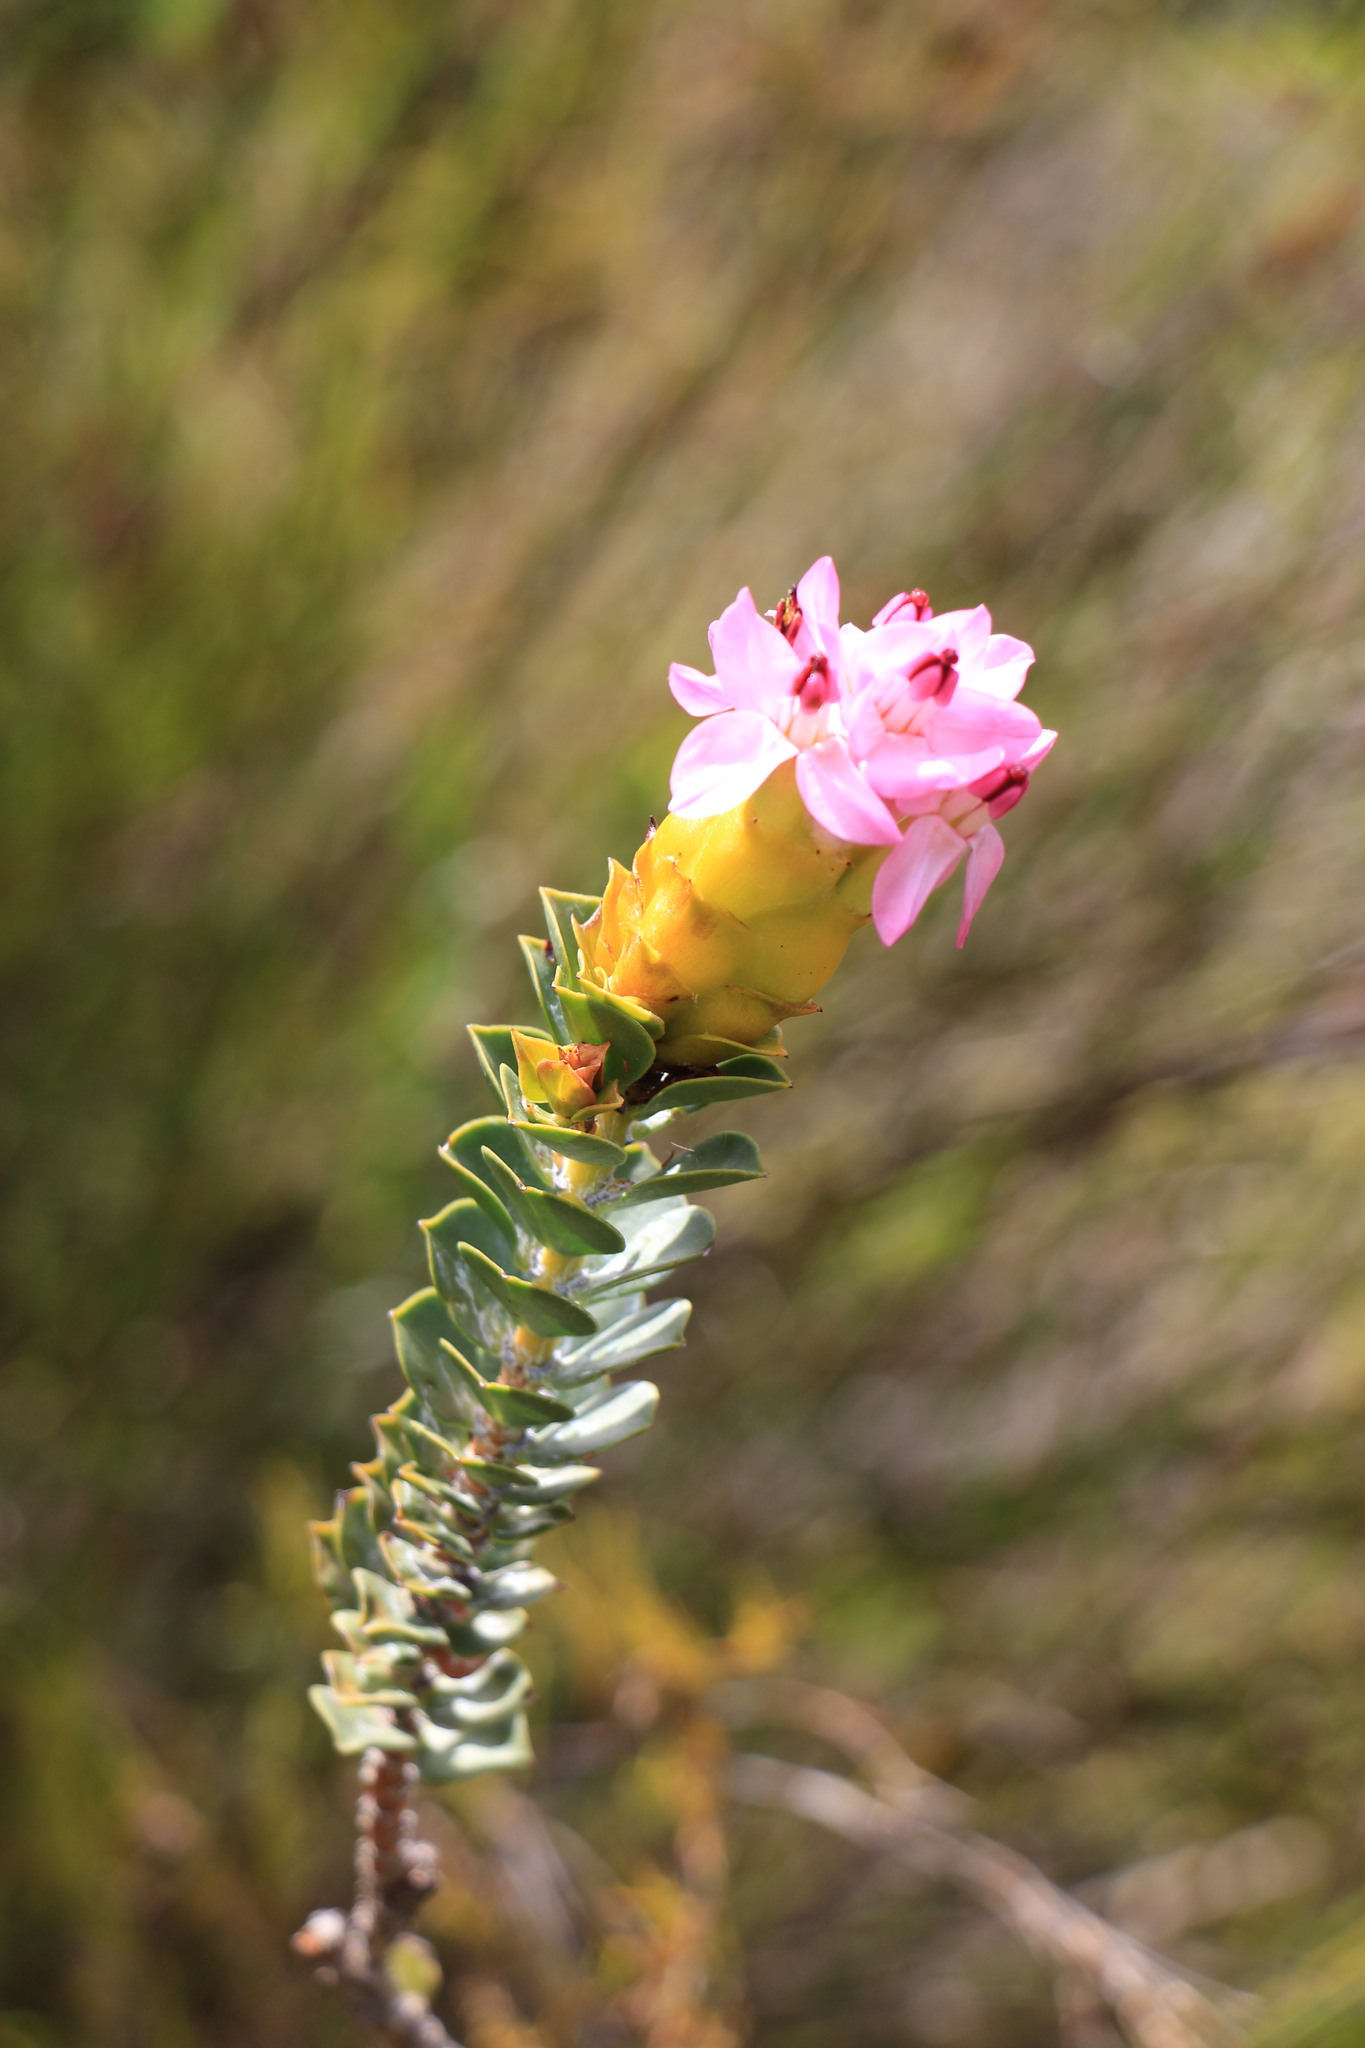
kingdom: Plantae
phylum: Tracheophyta
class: Magnoliopsida
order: Myrtales
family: Penaeaceae
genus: Saltera
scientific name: Saltera sarcocolla
